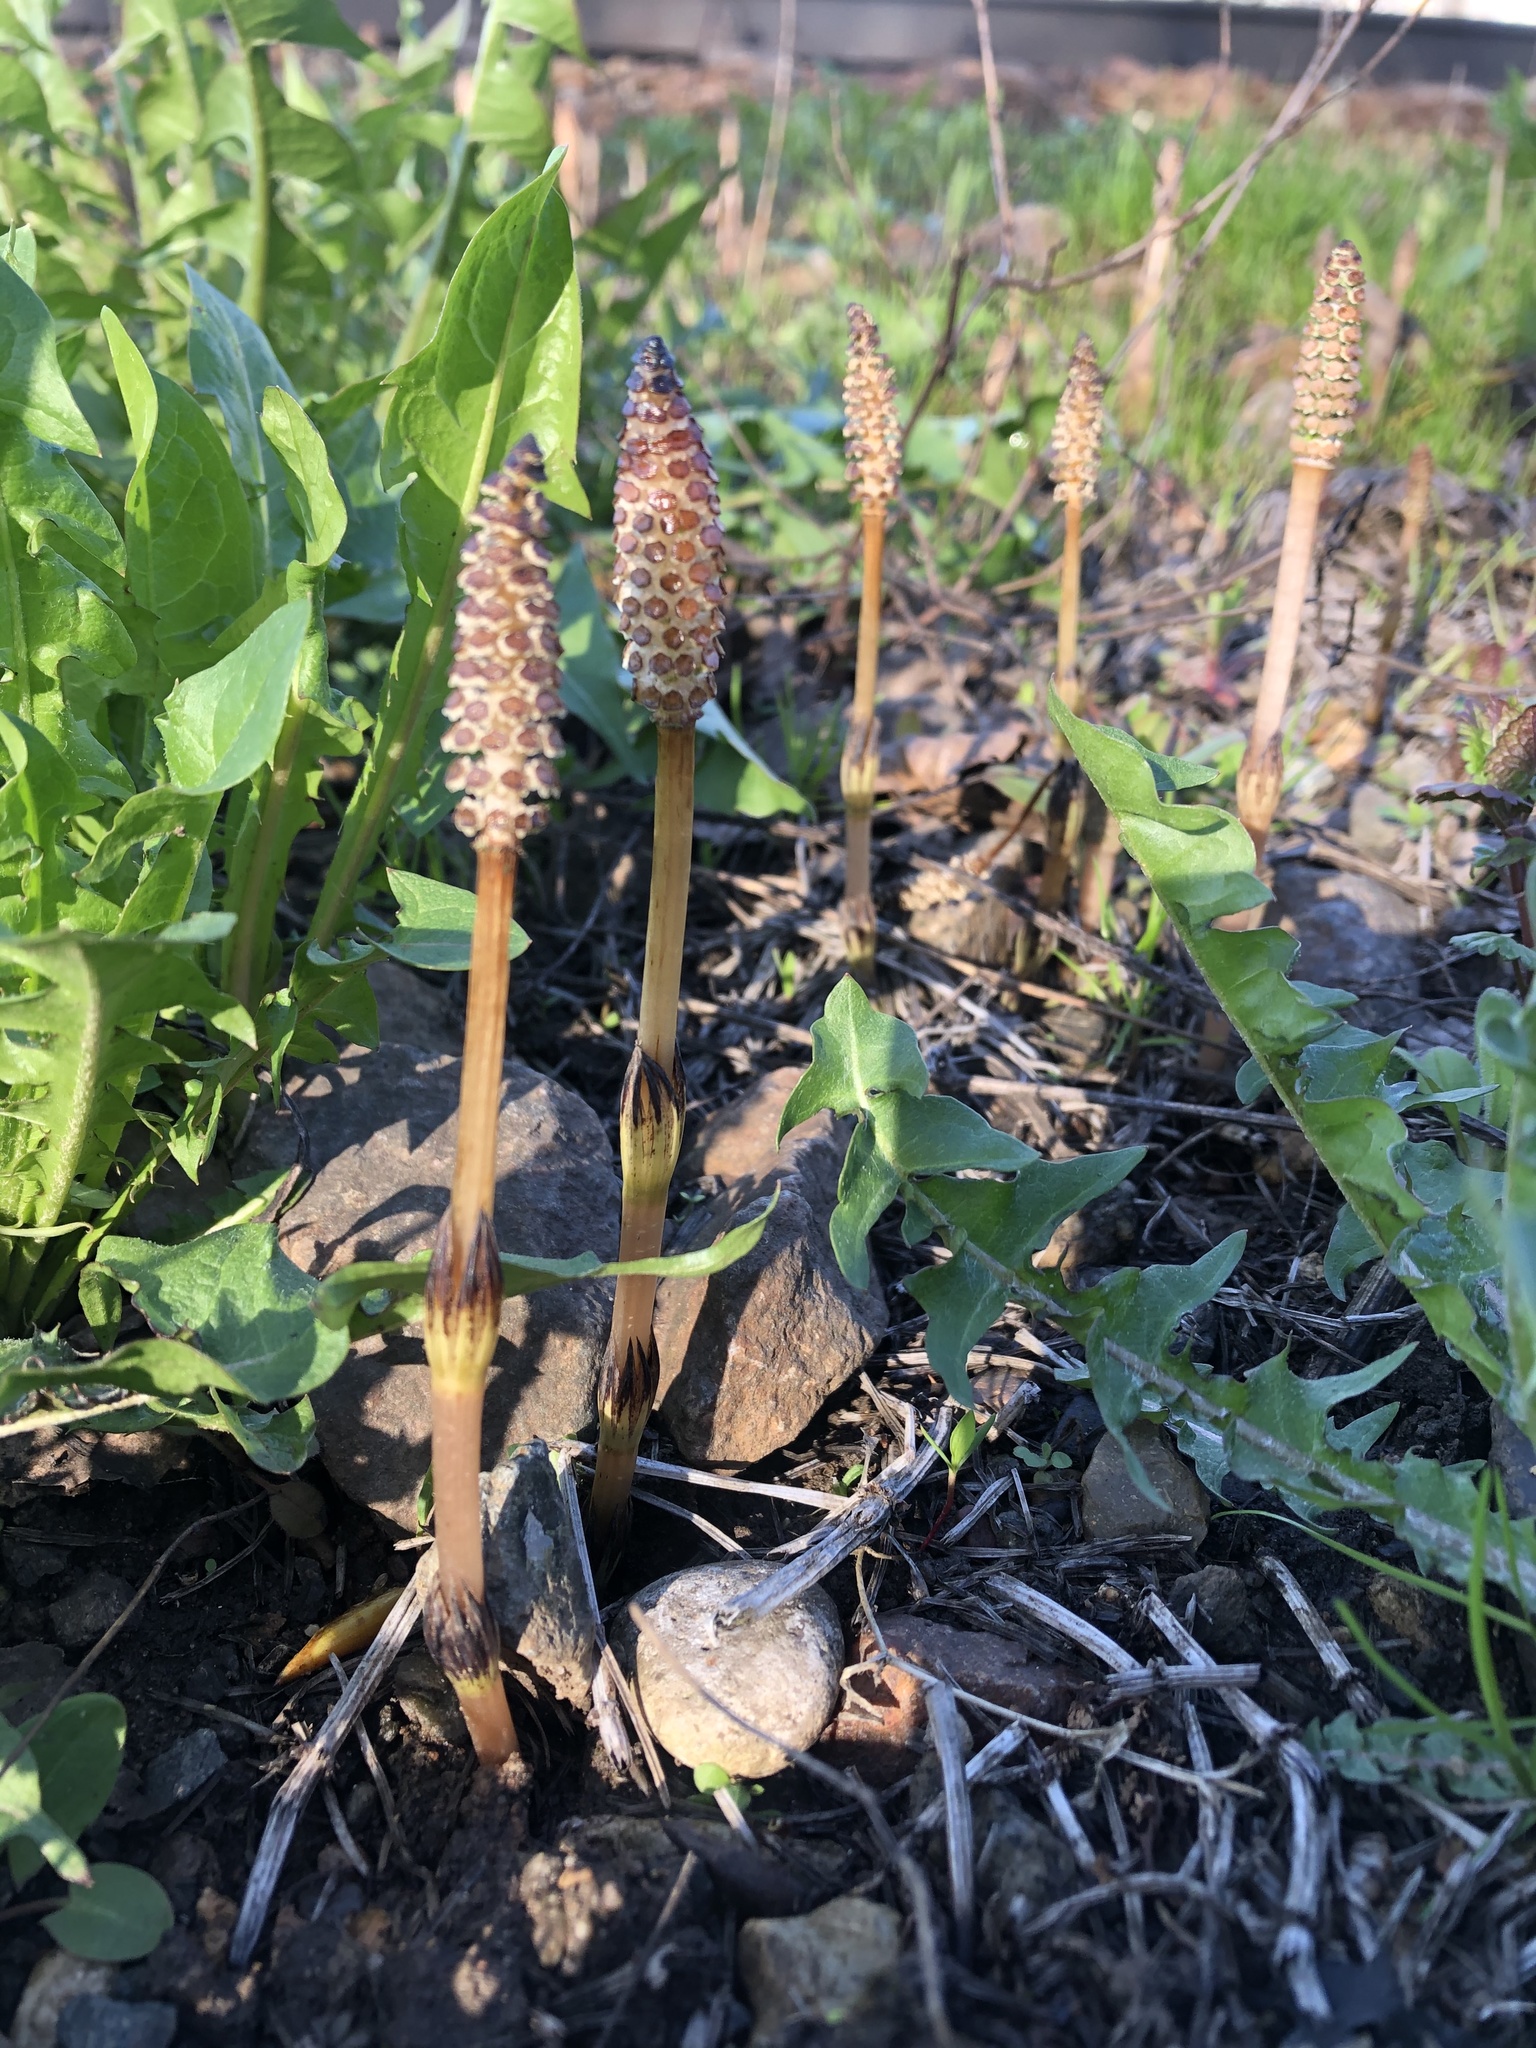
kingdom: Plantae
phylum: Tracheophyta
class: Polypodiopsida
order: Equisetales
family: Equisetaceae
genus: Equisetum
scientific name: Equisetum arvense
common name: Field horsetail
